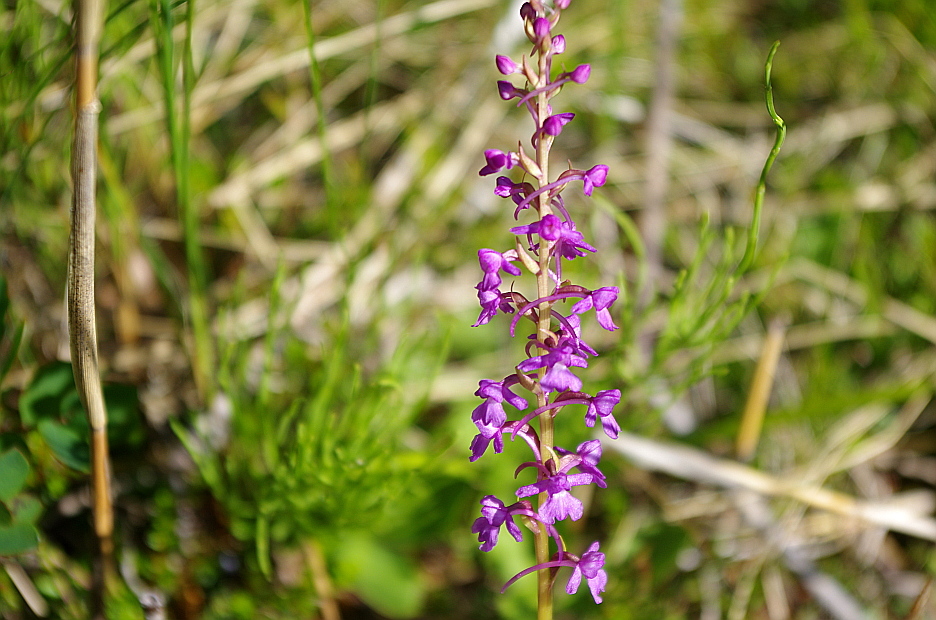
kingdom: Plantae
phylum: Tracheophyta
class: Liliopsida
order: Asparagales
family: Orchidaceae
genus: Gymnadenia
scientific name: Gymnadenia conopsea
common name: Fragrant orchid
